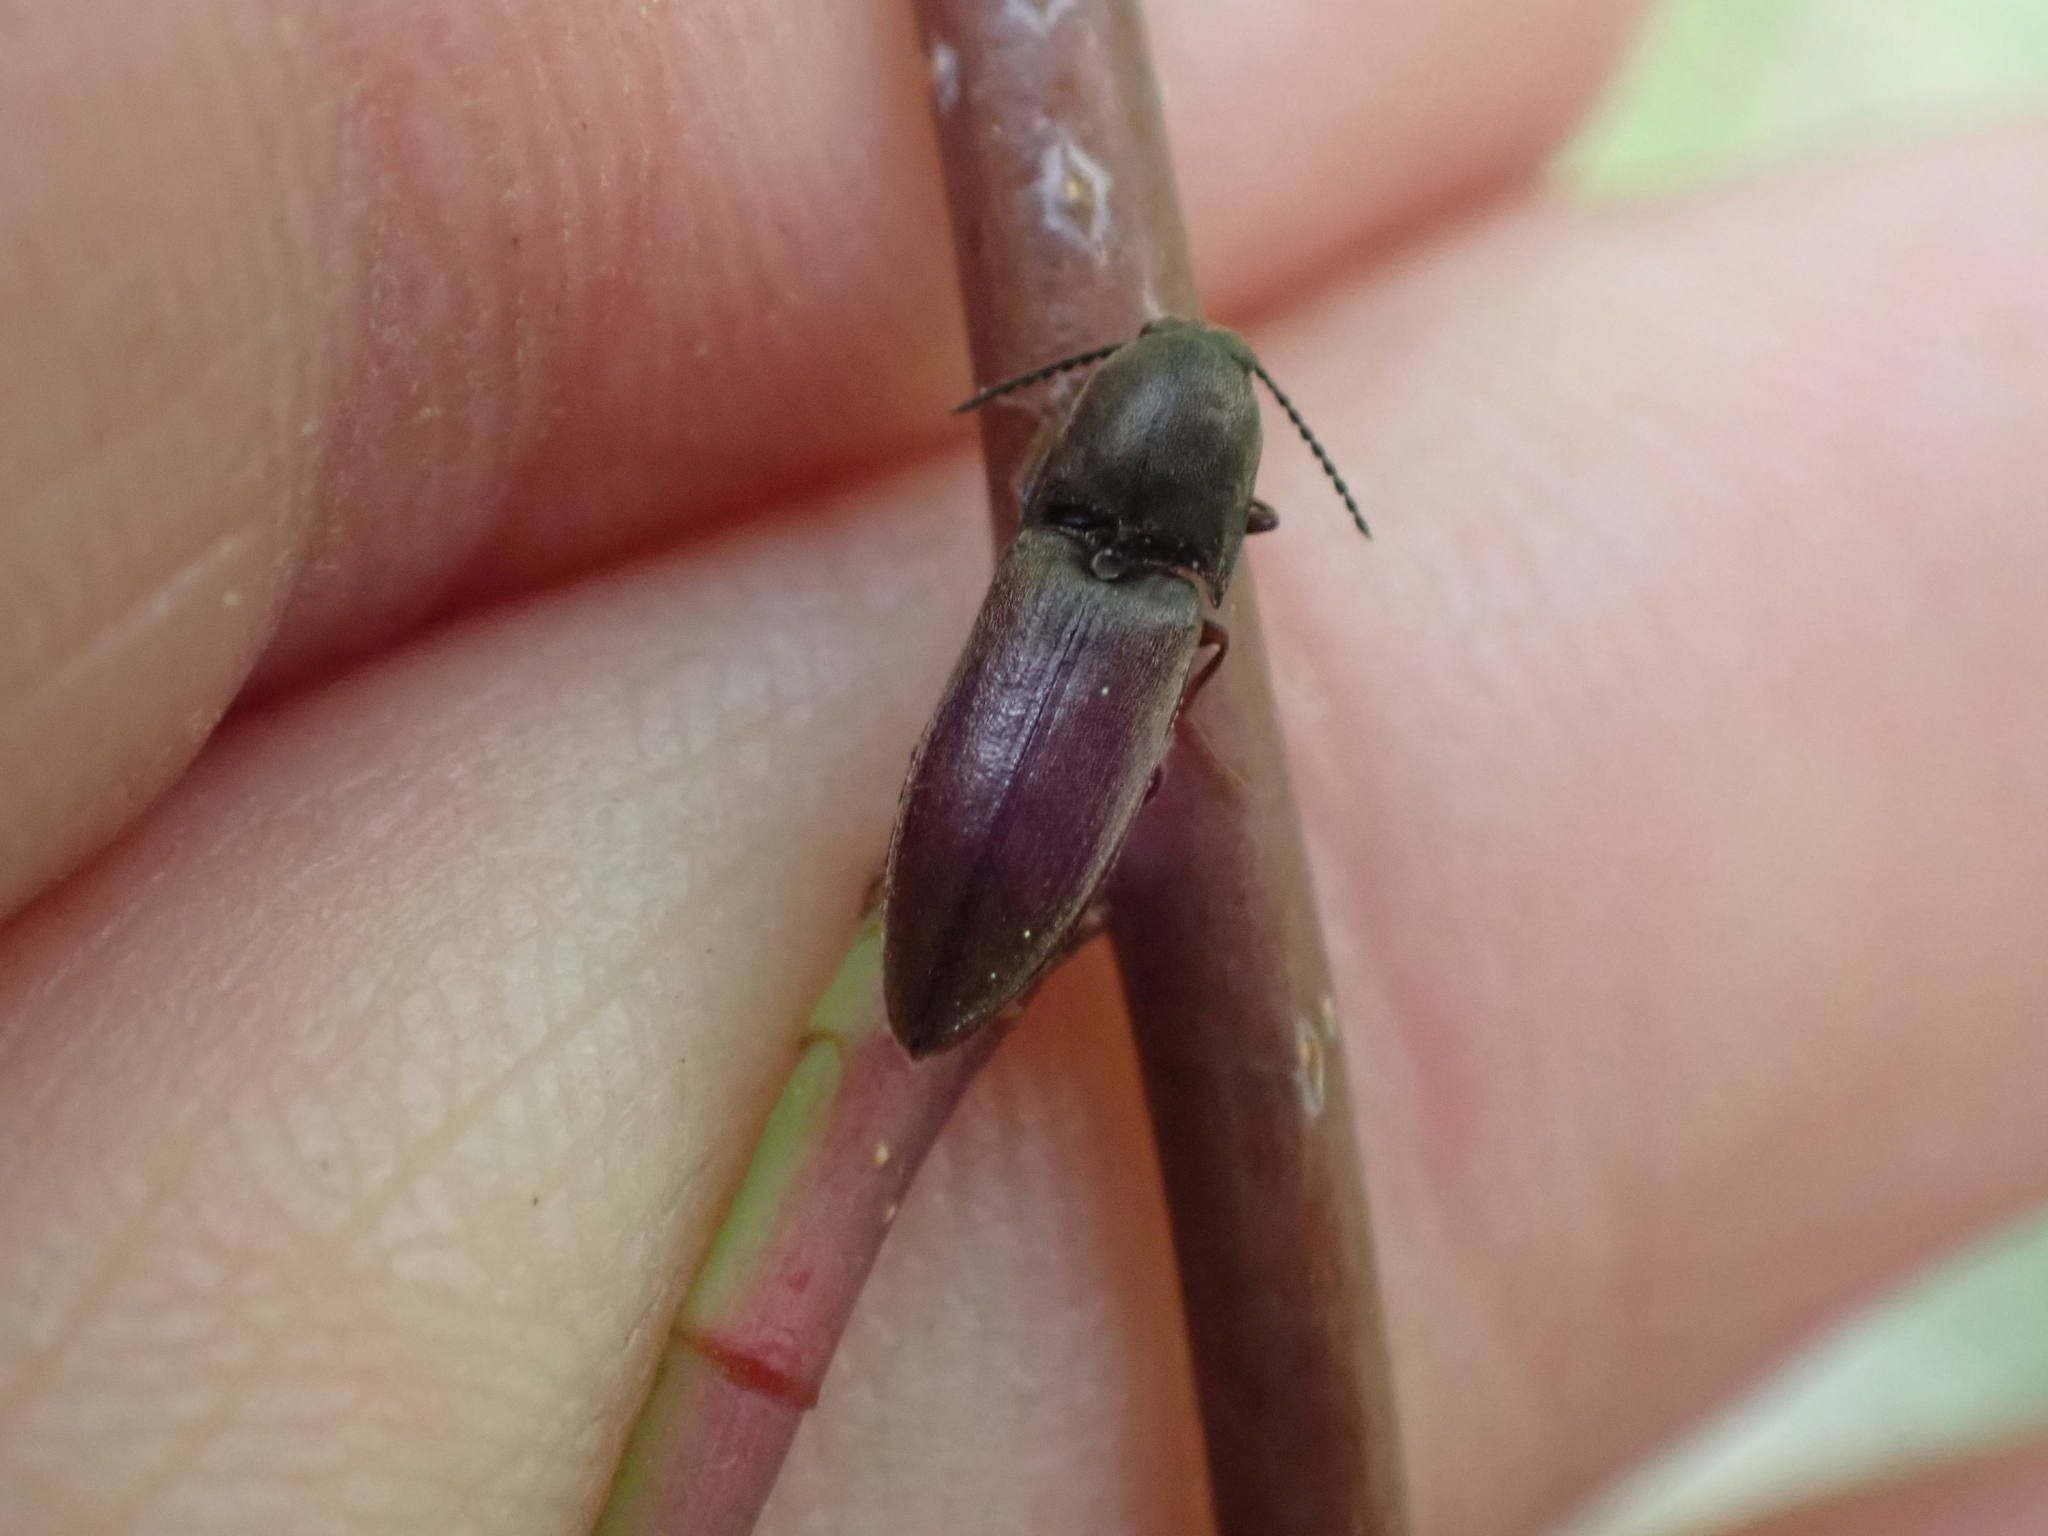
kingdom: Animalia
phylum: Arthropoda
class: Insecta
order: Coleoptera
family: Elateridae
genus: Sericus
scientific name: Sericus incongruus
